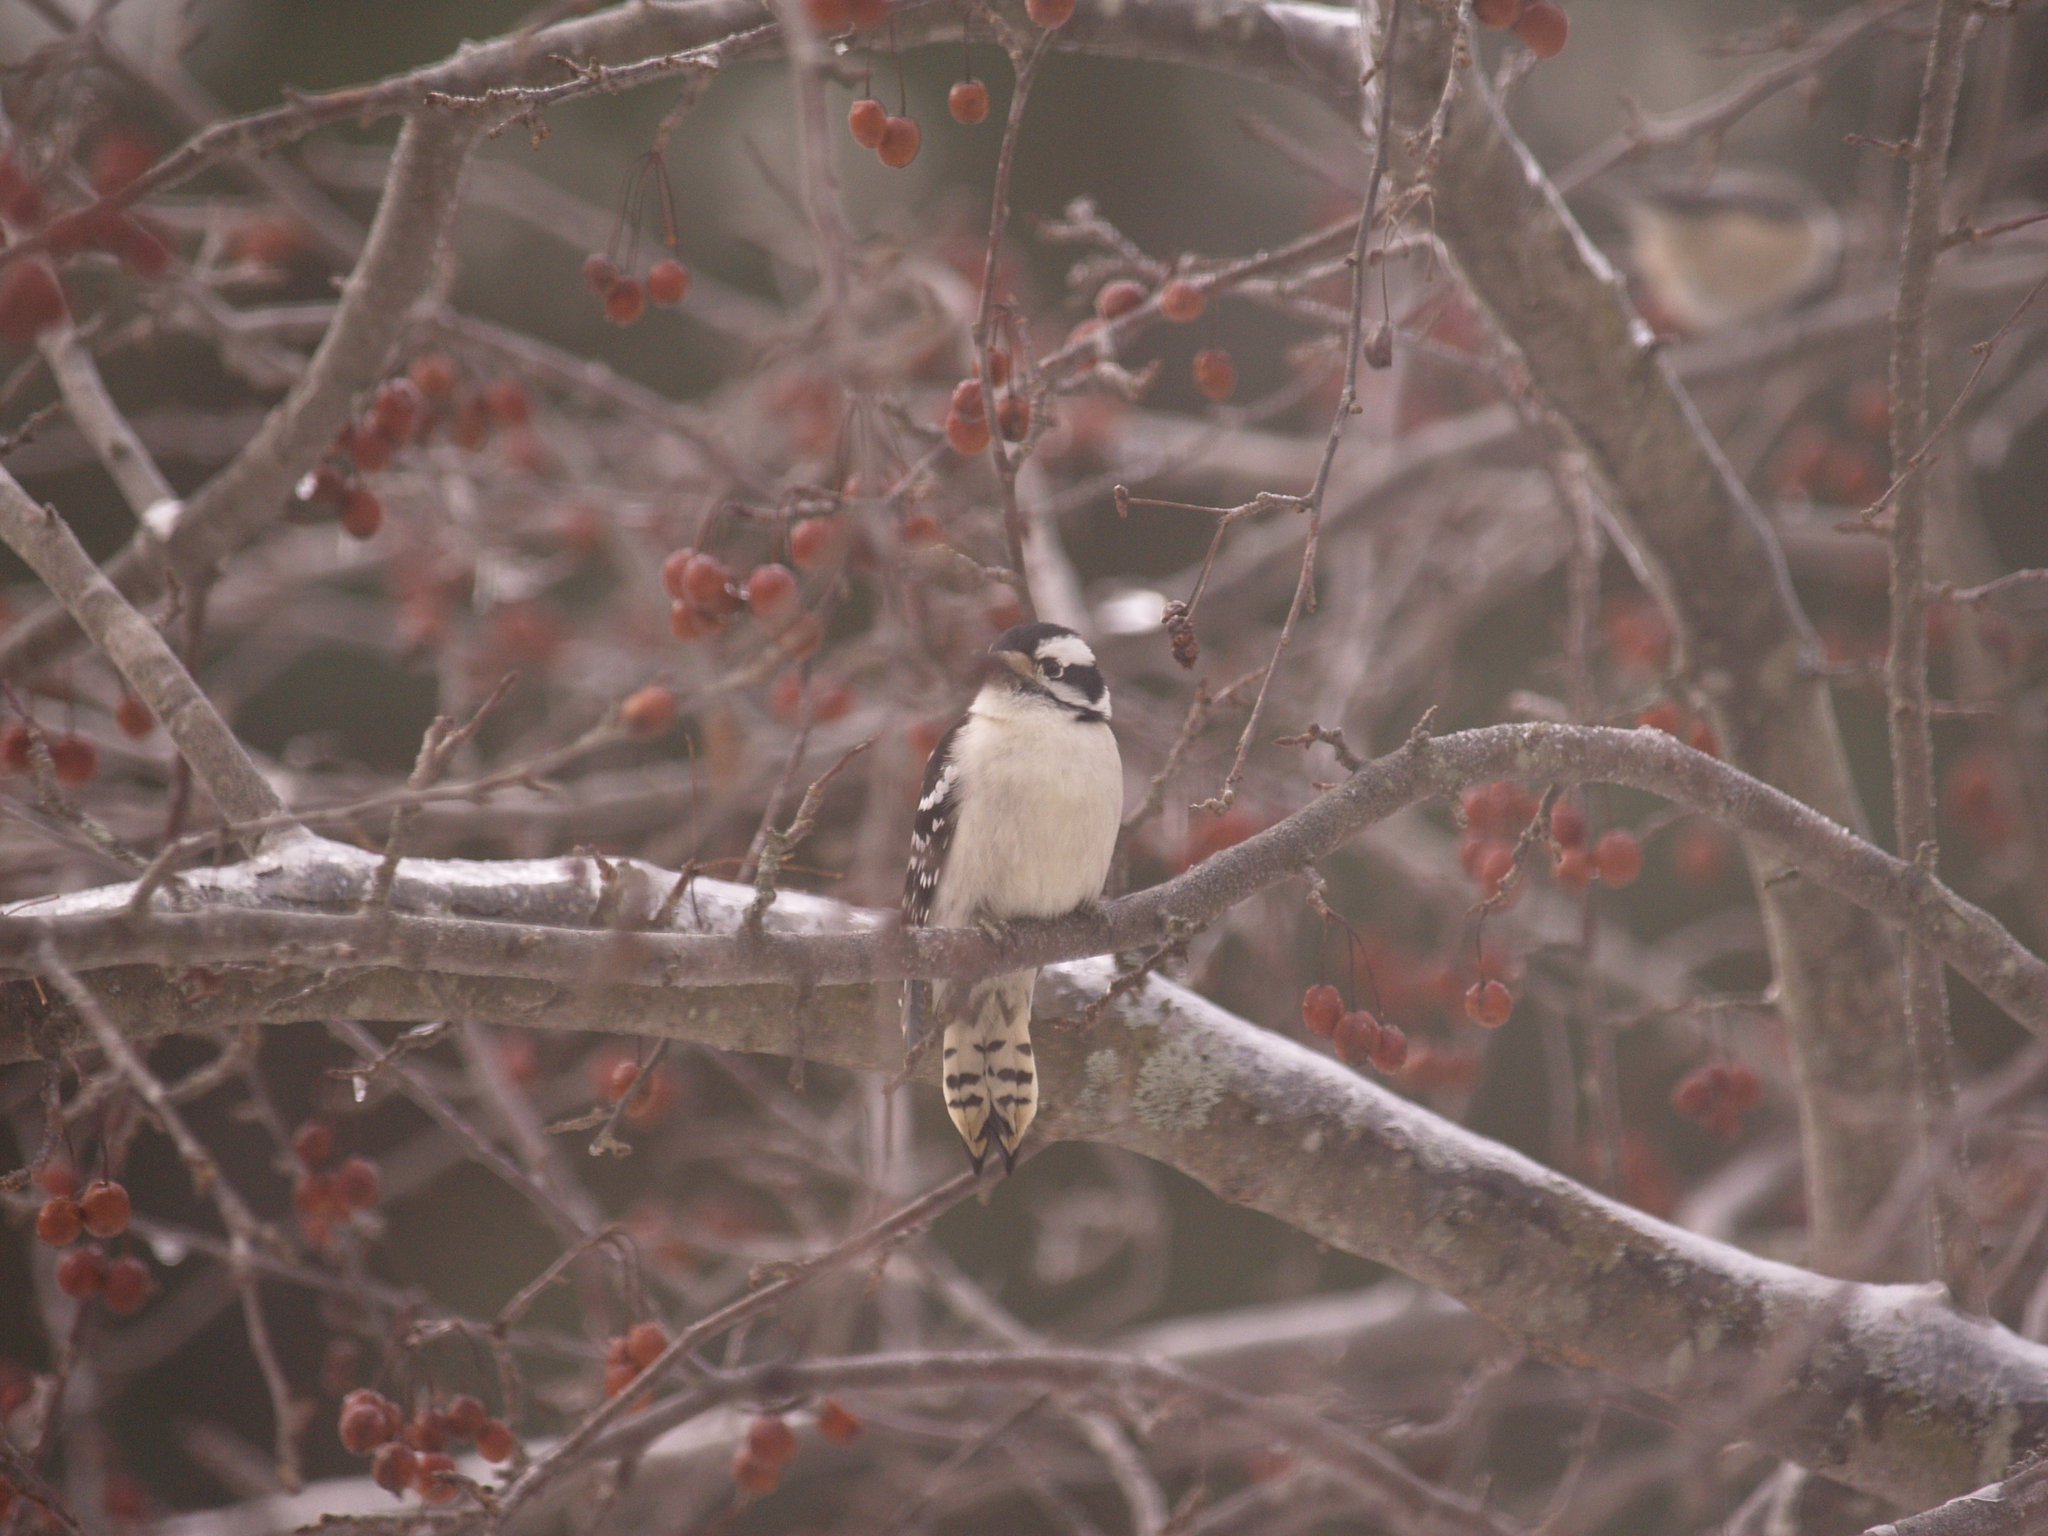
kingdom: Animalia
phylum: Chordata
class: Aves
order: Piciformes
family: Picidae
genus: Dryobates
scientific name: Dryobates pubescens
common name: Downy woodpecker
